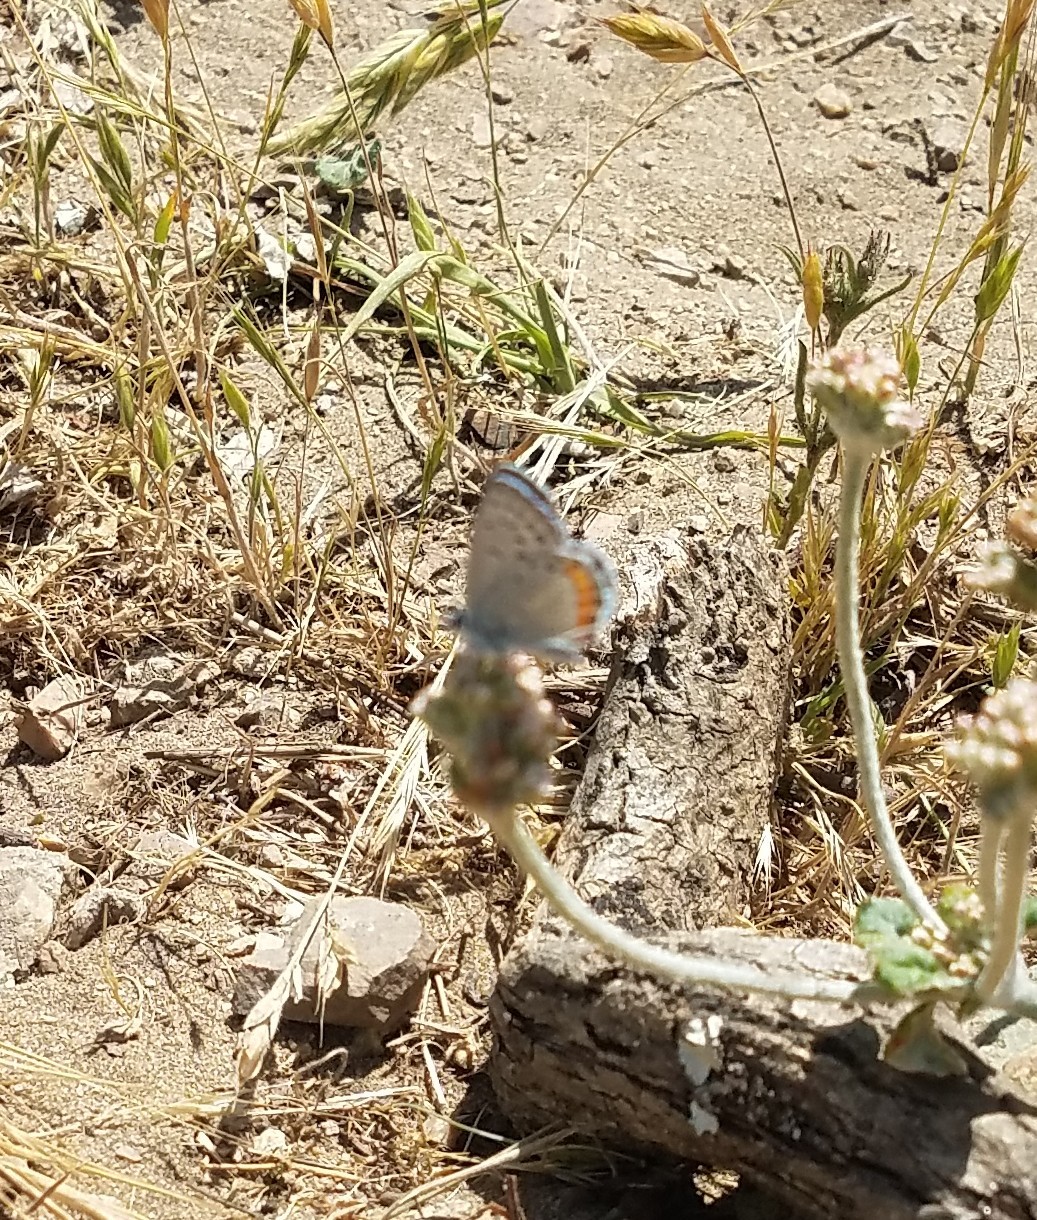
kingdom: Animalia
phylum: Arthropoda
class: Insecta
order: Lepidoptera
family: Lycaenidae
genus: Icaricia
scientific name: Icaricia acmon
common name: Acmon blue
